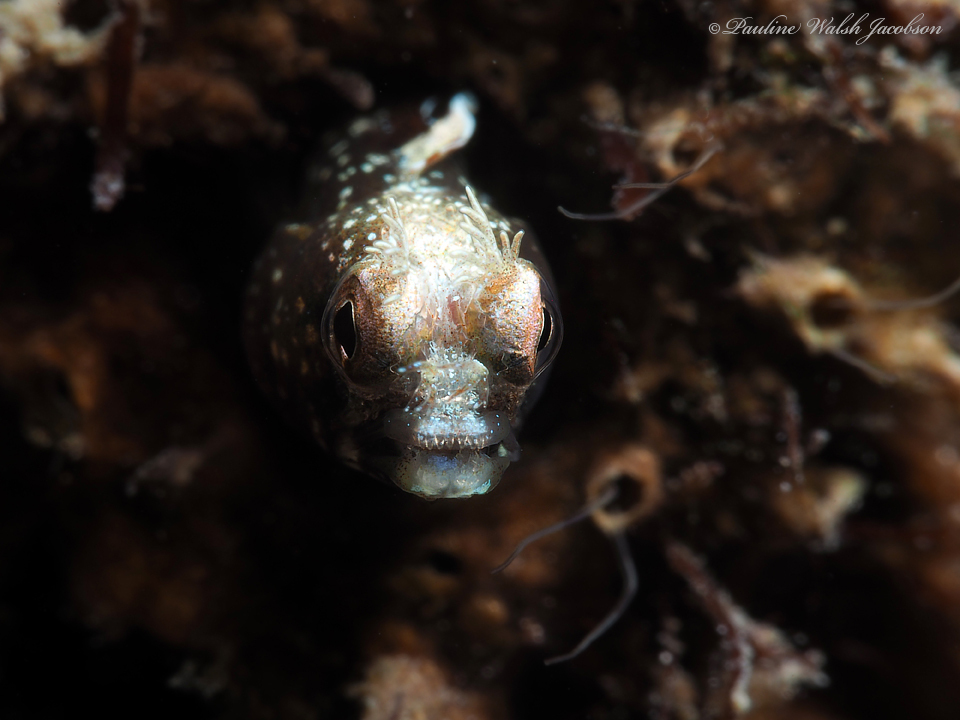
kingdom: Animalia
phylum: Chordata
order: Perciformes
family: Chaenopsidae
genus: Acanthemblemaria
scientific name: Acanthemblemaria aspera
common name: Roughhead blenny
